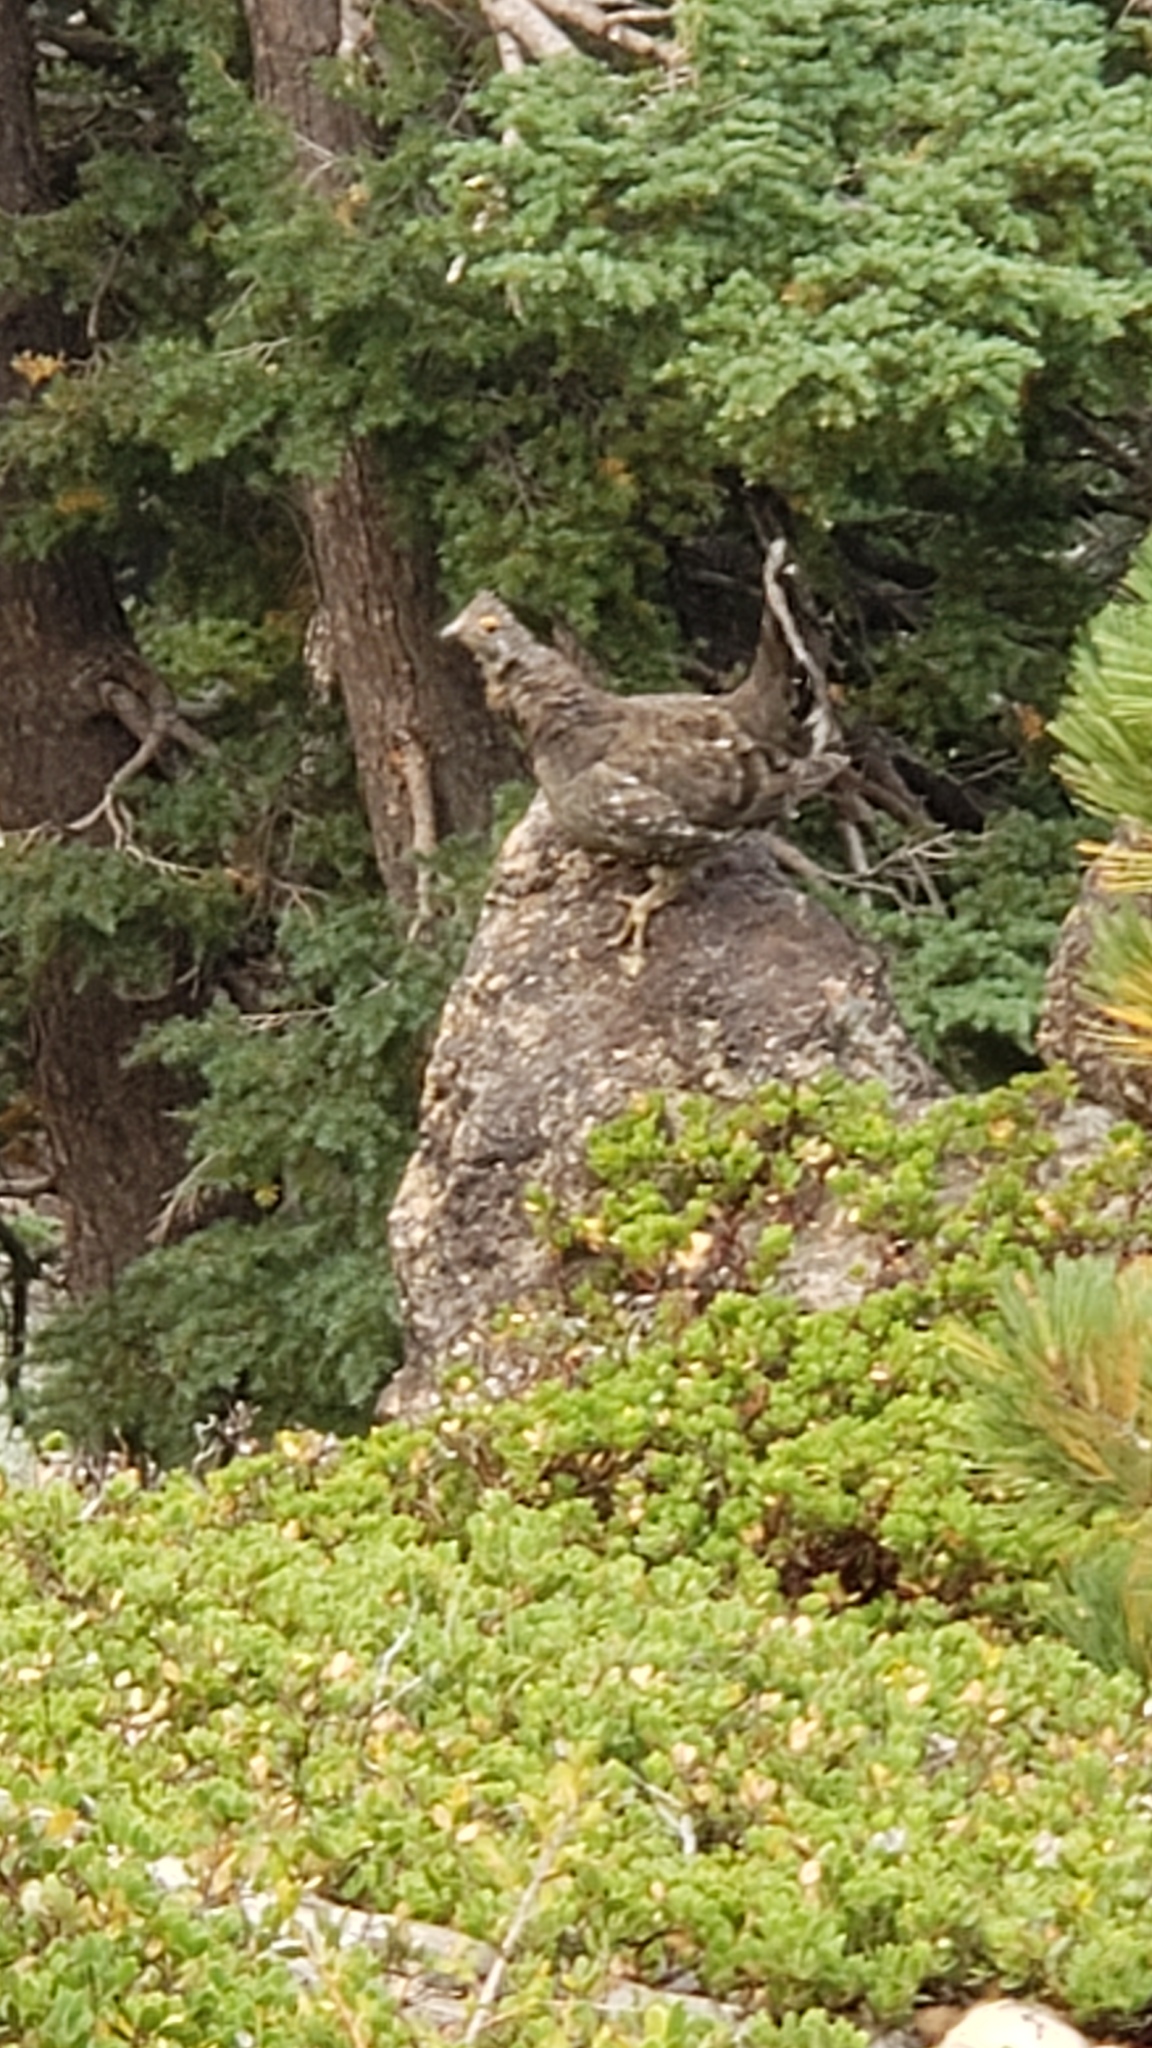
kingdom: Animalia
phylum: Chordata
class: Aves
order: Galliformes
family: Phasianidae
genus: Dendragapus
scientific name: Dendragapus fuliginosus
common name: Sooty grouse
